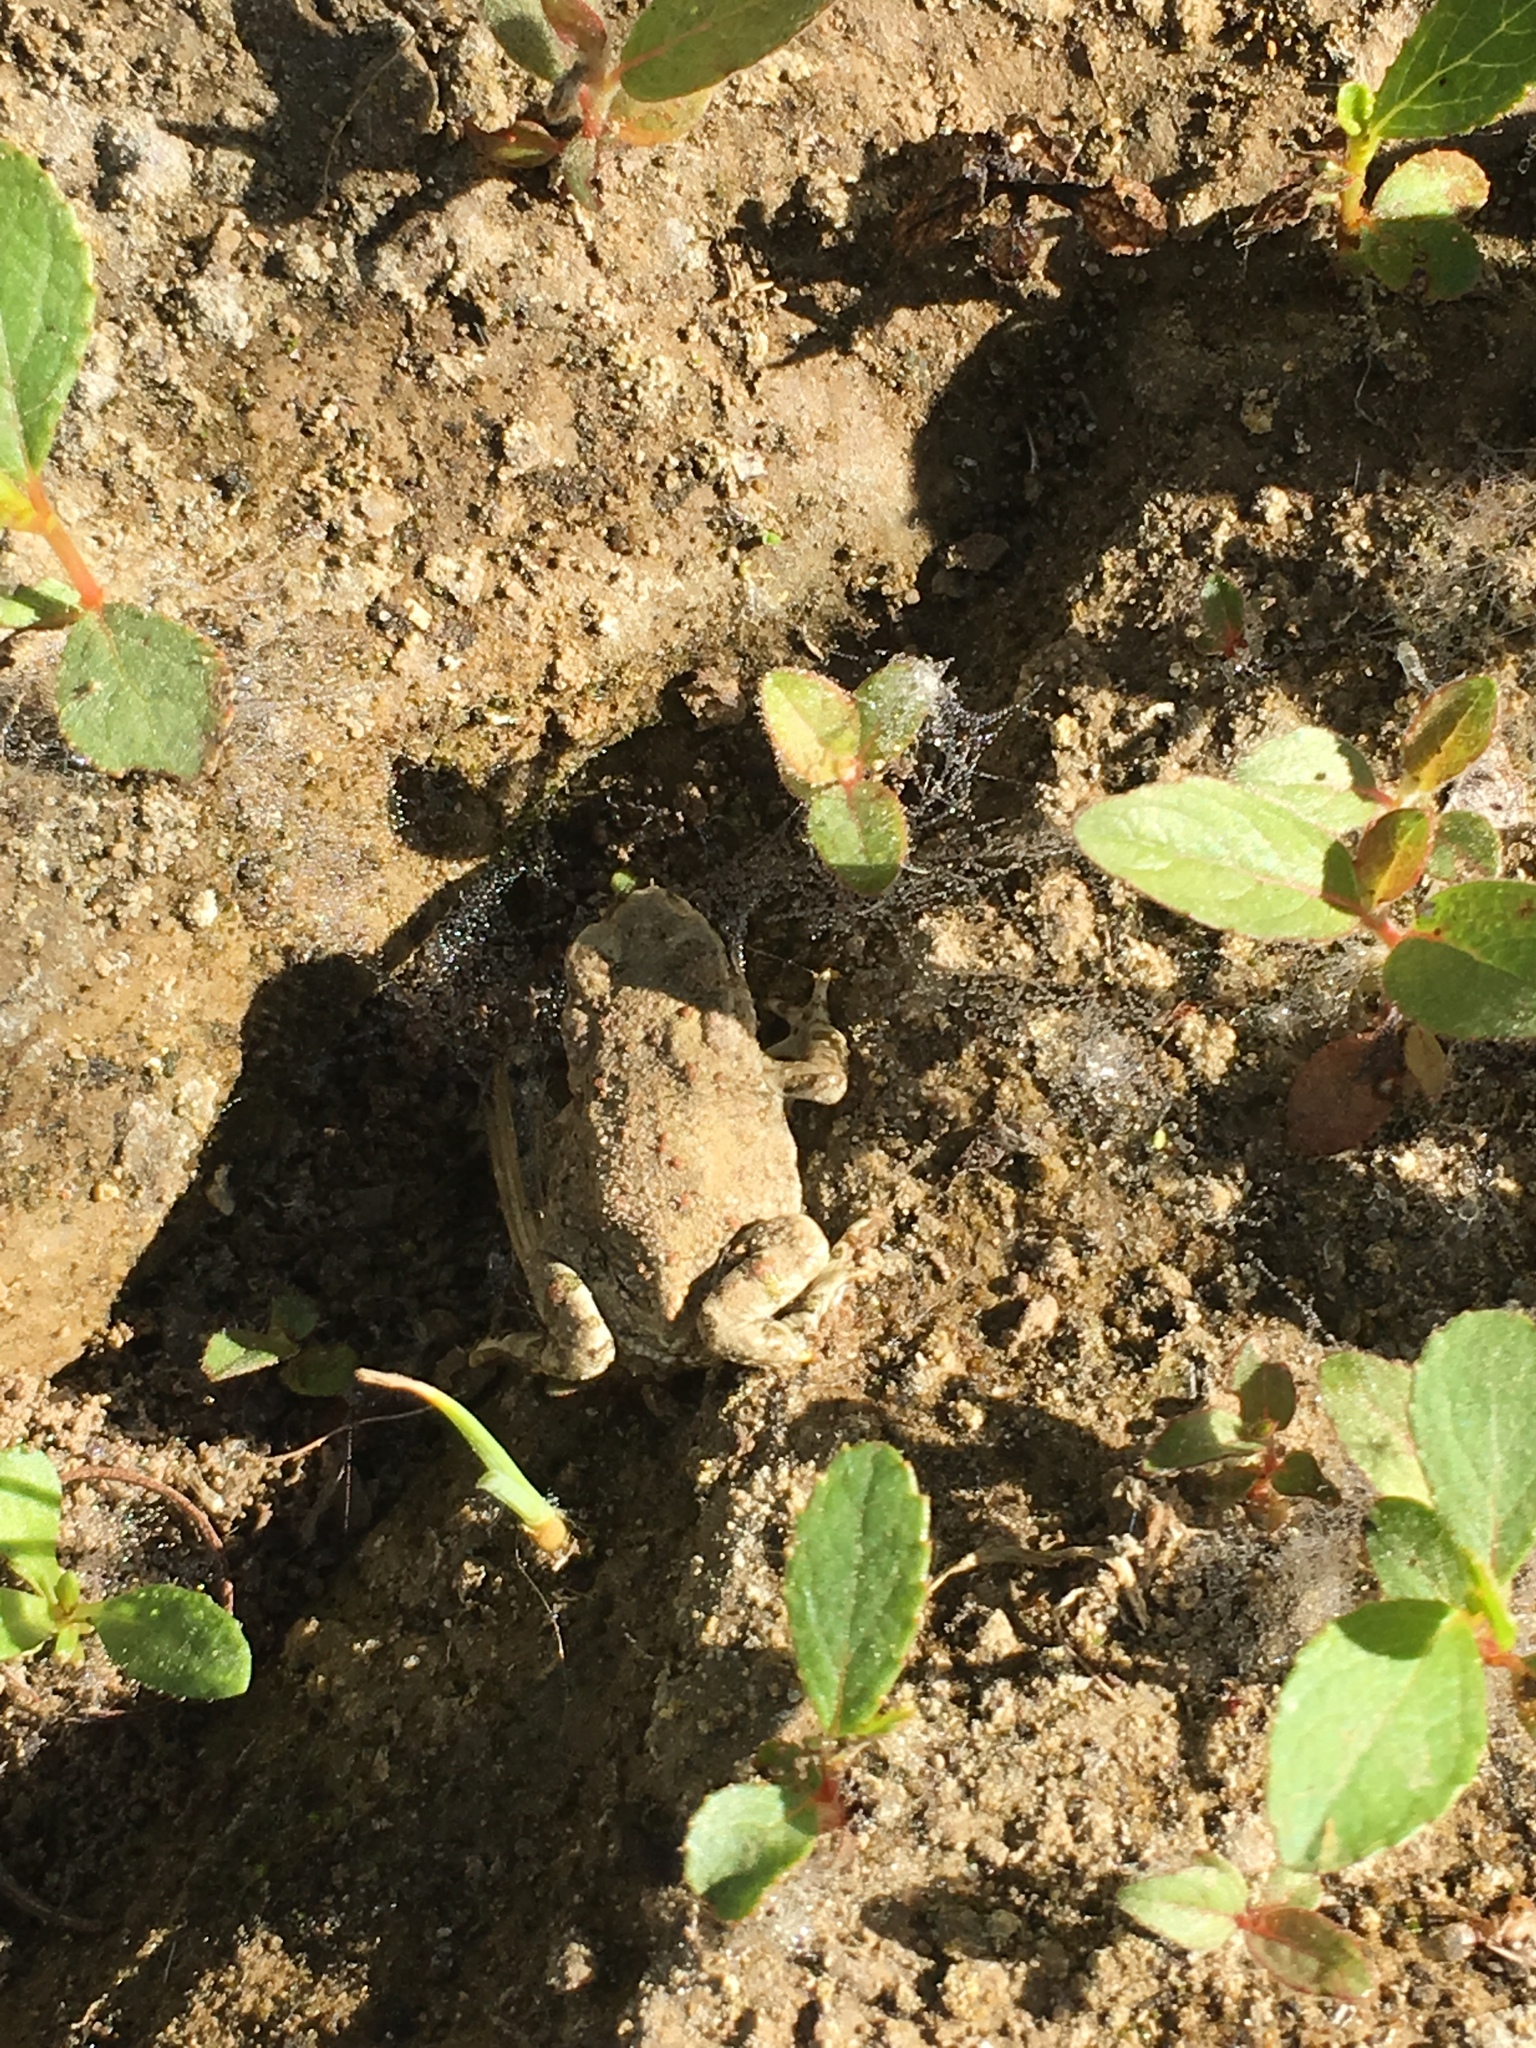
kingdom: Animalia
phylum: Chordata
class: Amphibia
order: Anura
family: Bufonidae
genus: Anaxyrus
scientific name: Anaxyrus boreas
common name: Western toad
